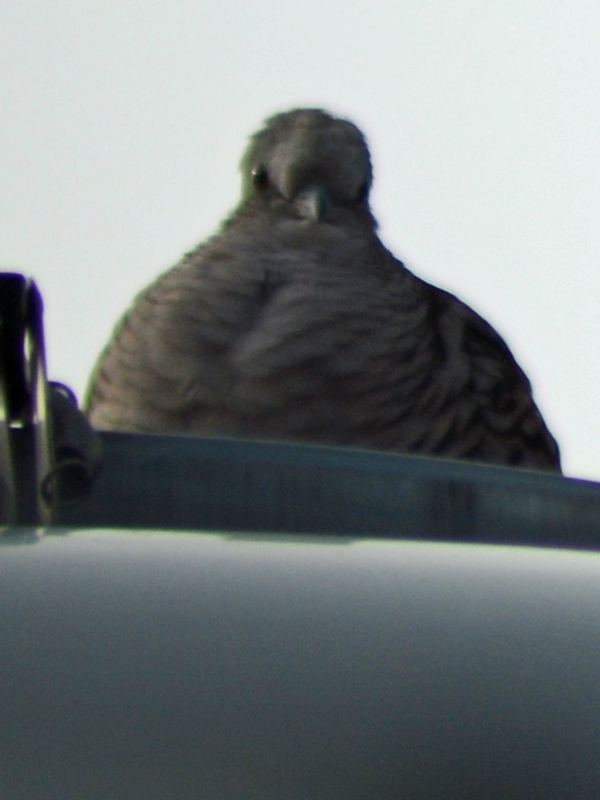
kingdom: Animalia
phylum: Chordata
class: Aves
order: Columbiformes
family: Columbidae
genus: Columbina
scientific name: Columbina inca
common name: Inca dove
